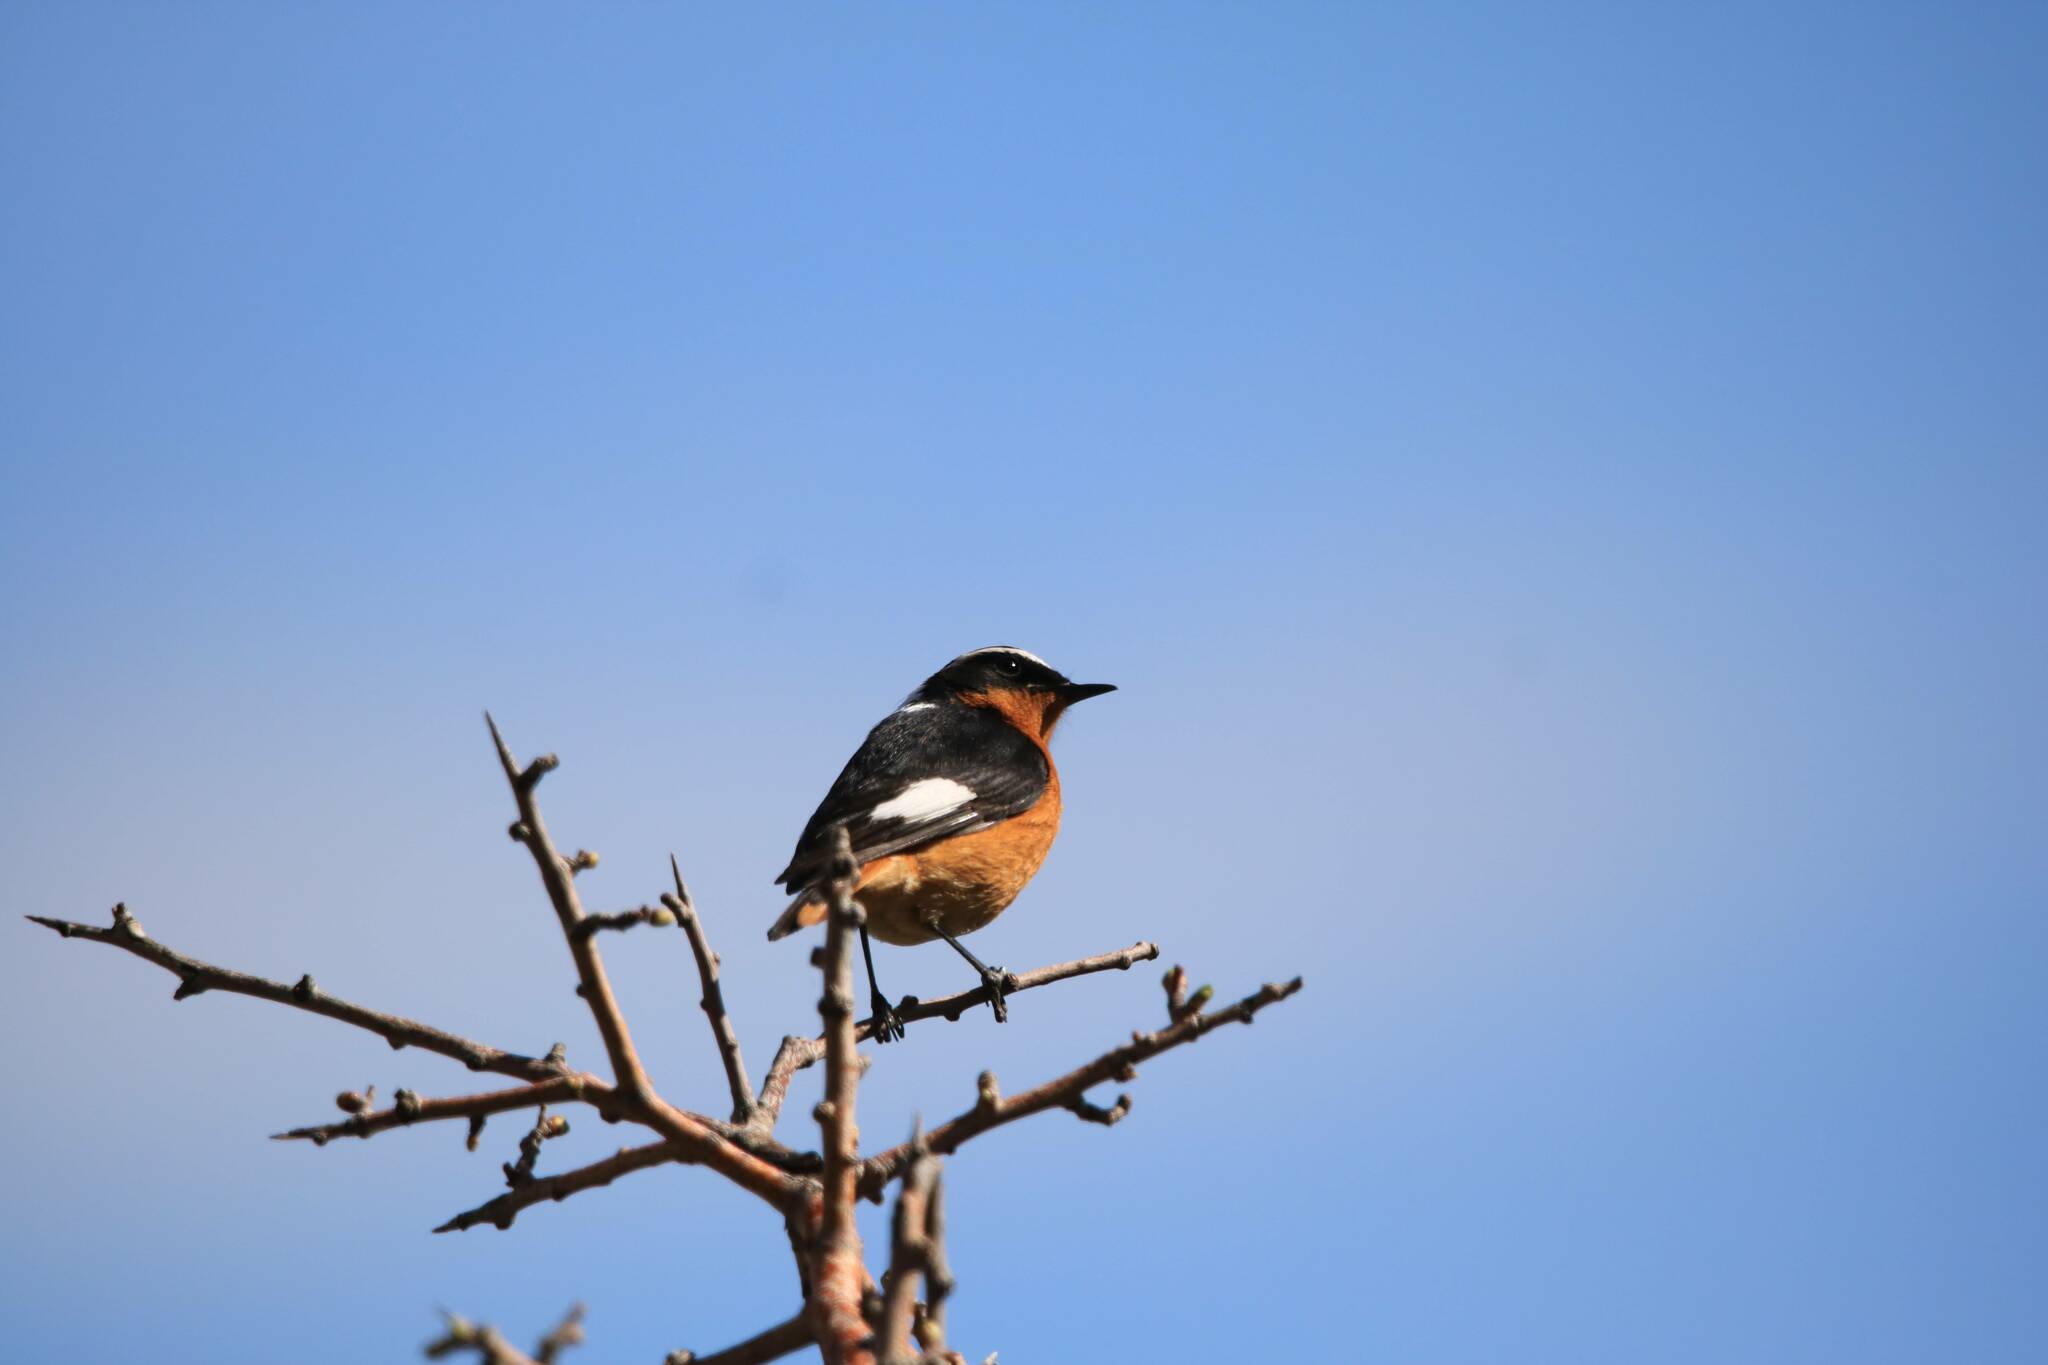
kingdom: Animalia
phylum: Chordata
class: Aves
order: Passeriformes
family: Muscicapidae
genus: Phoenicurus
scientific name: Phoenicurus moussieri
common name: Moussier's redstart
